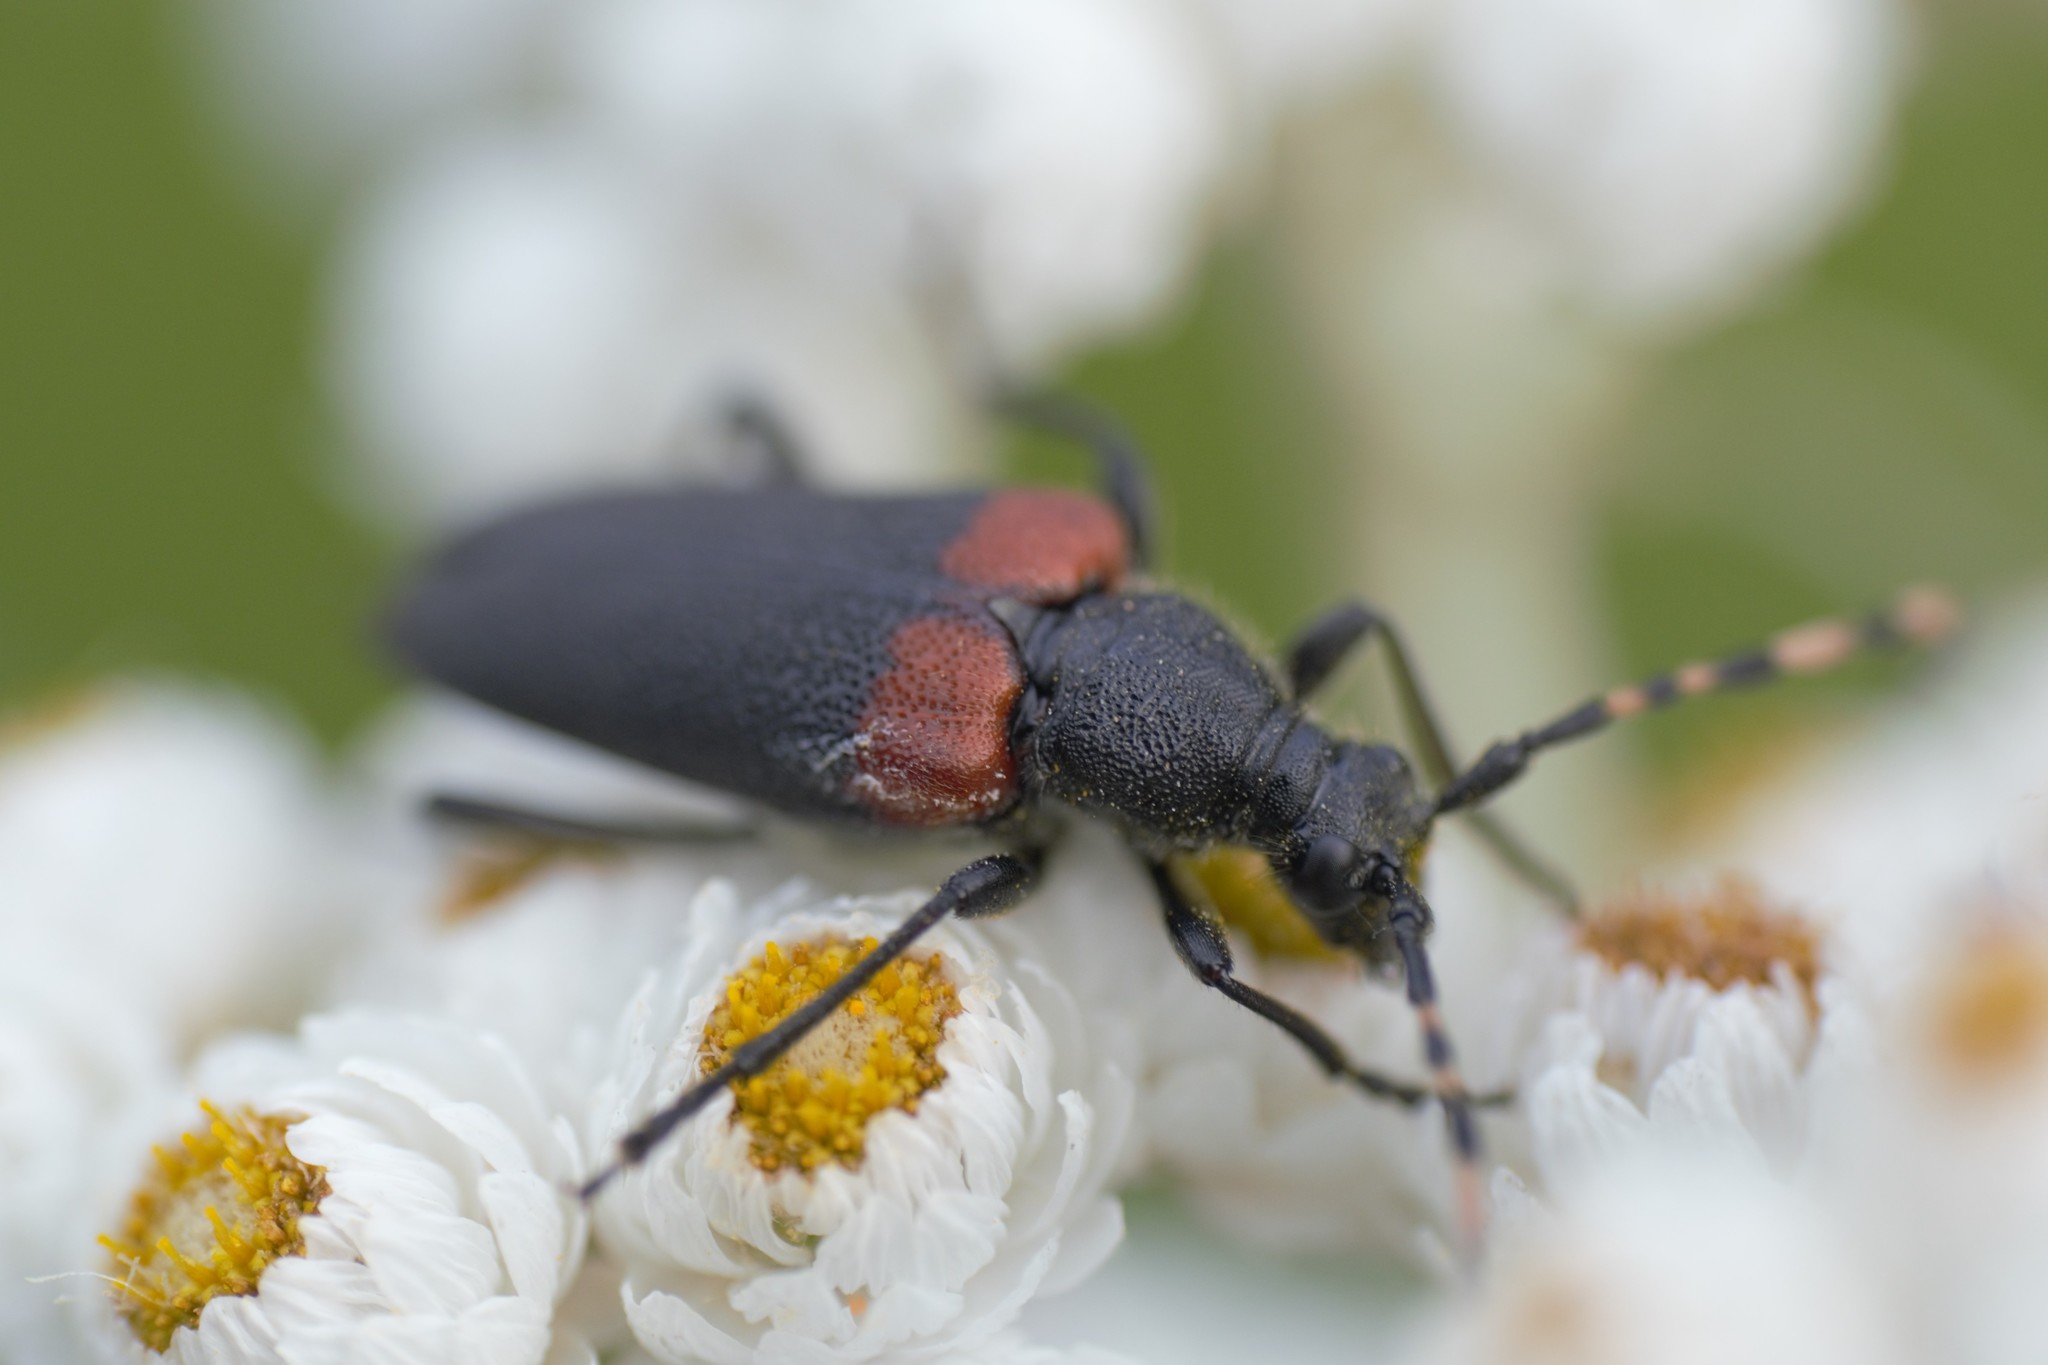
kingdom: Animalia
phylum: Arthropoda
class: Insecta
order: Coleoptera
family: Cerambycidae
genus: Stictoleptura
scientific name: Stictoleptura canadensis
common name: Red-shouldered pine borer
